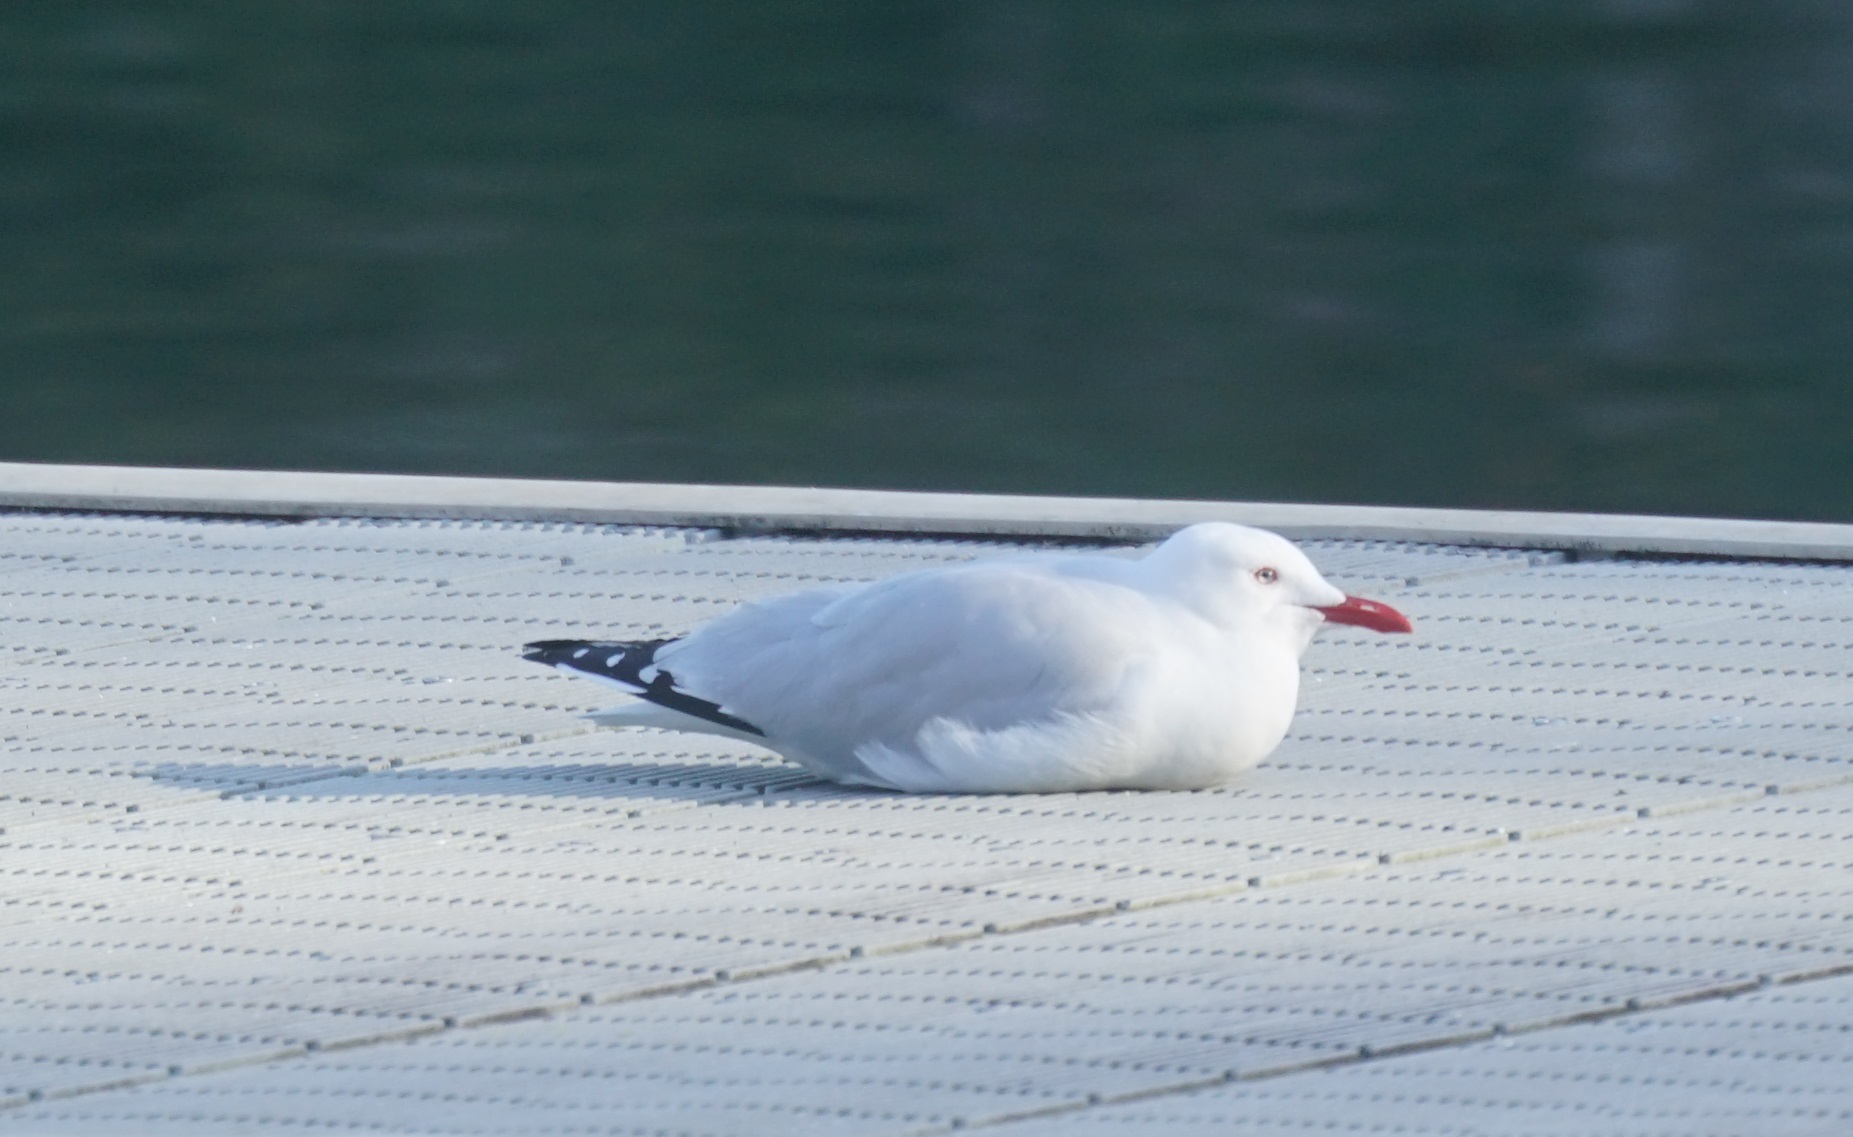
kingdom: Animalia
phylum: Chordata
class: Aves
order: Charadriiformes
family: Laridae
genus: Chroicocephalus
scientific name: Chroicocephalus novaehollandiae
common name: Silver gull
